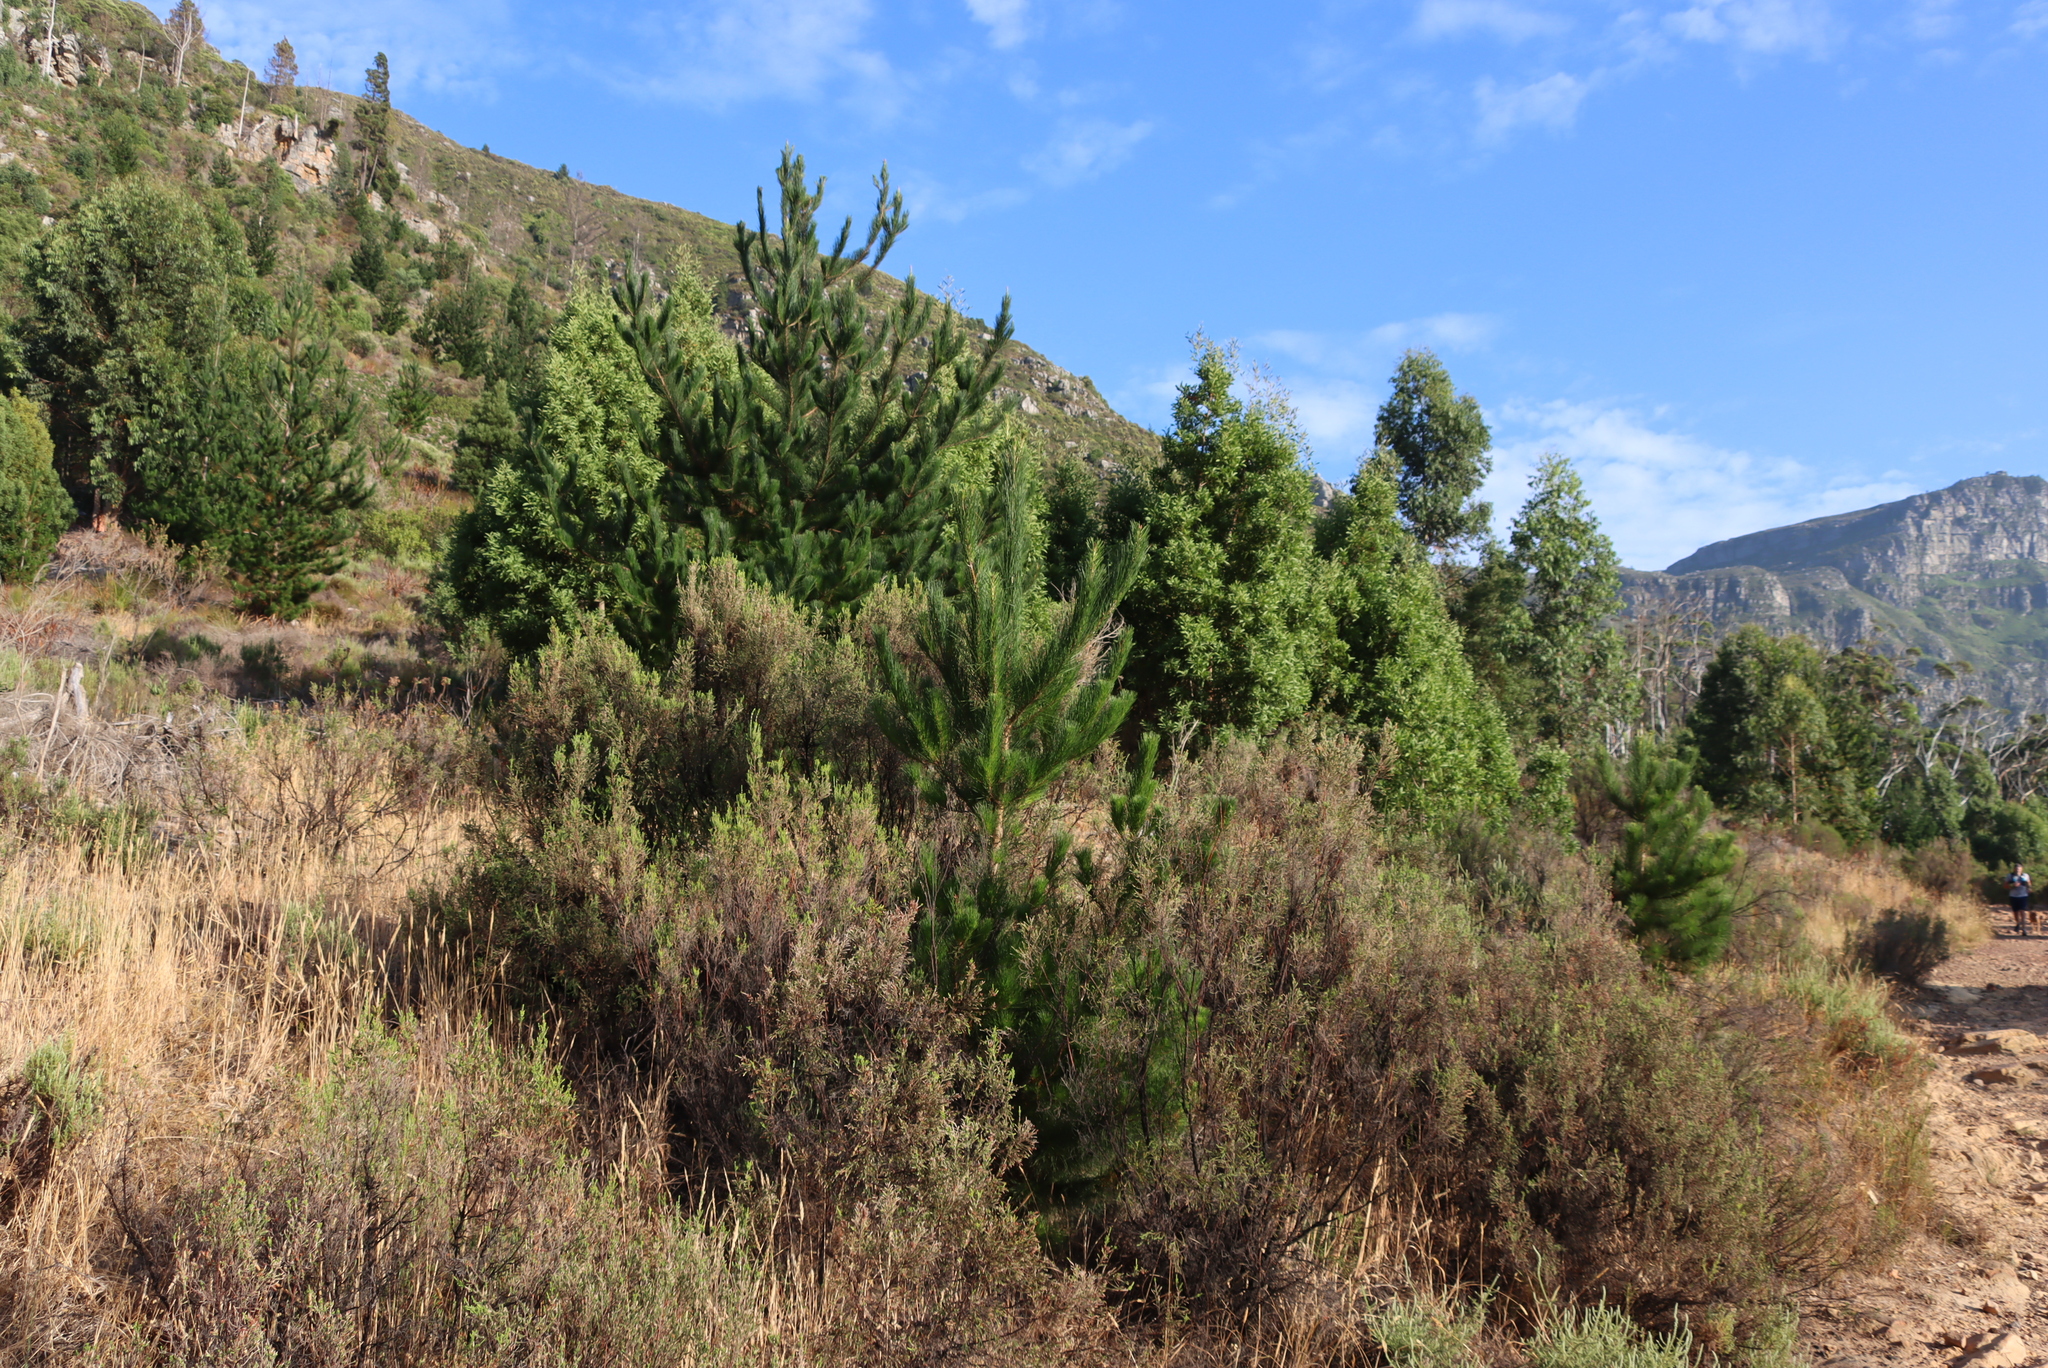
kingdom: Plantae
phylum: Tracheophyta
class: Magnoliopsida
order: Malvales
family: Thymelaeaceae
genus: Passerina
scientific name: Passerina corymbosa
